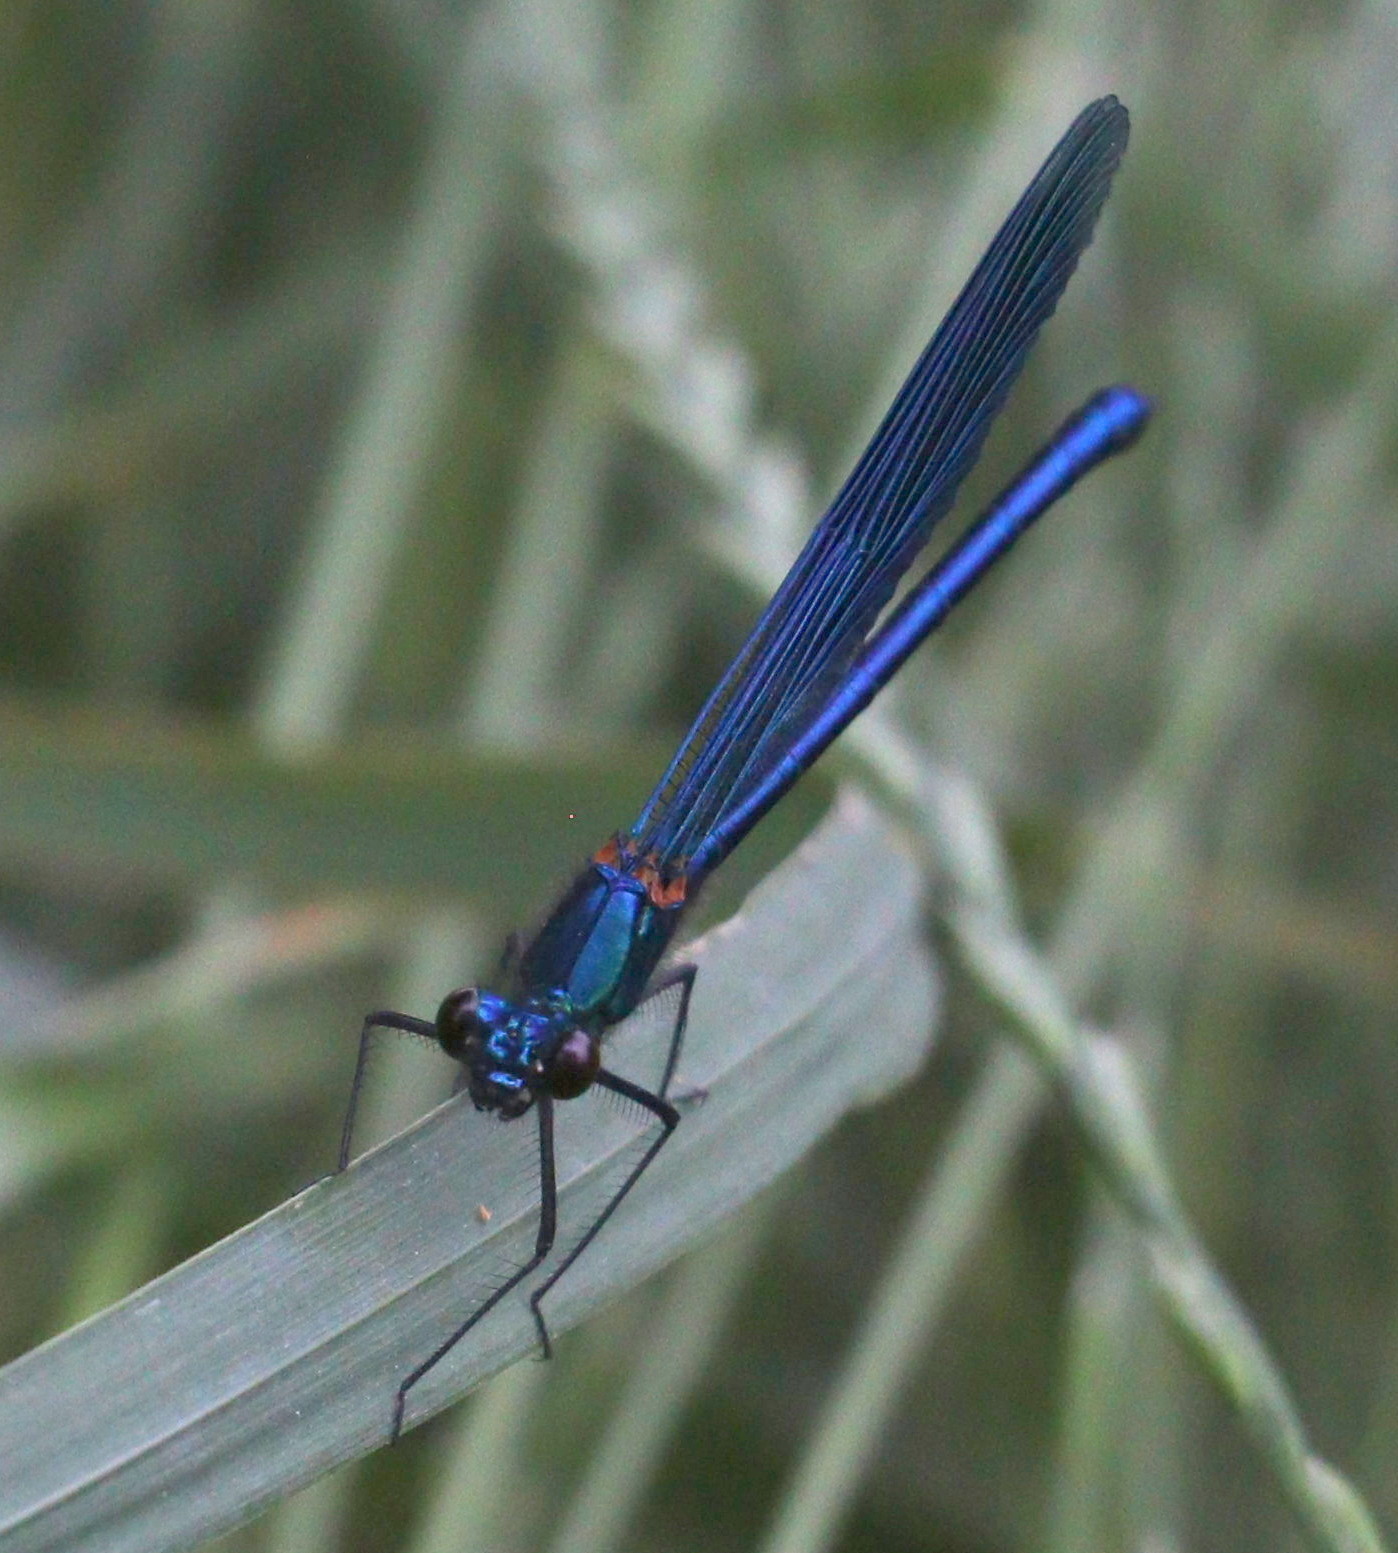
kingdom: Animalia
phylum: Arthropoda
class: Insecta
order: Odonata
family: Calopterygidae
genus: Calopteryx
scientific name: Calopteryx splendens
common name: Banded demoiselle
